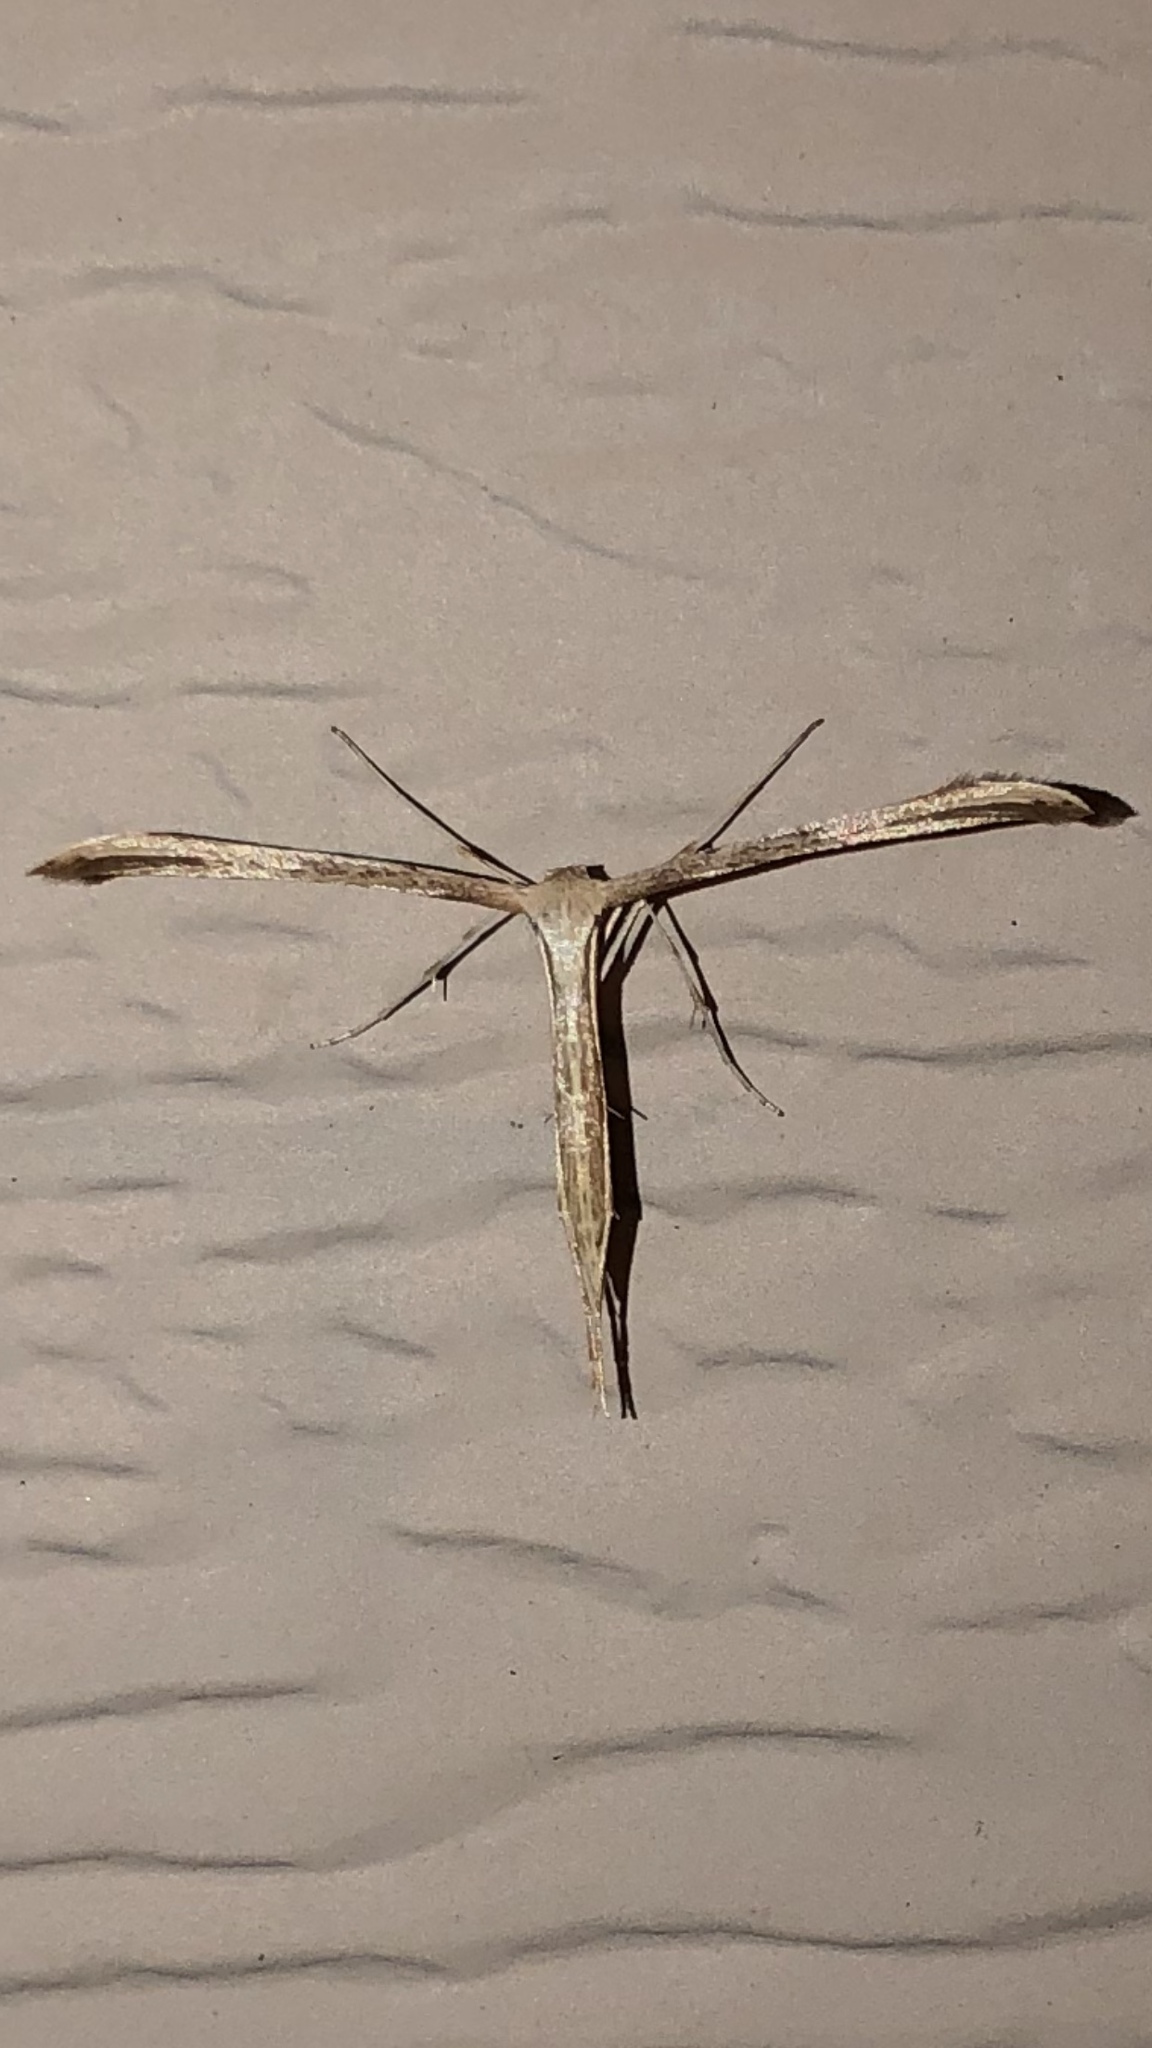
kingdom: Animalia
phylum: Arthropoda
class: Insecta
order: Lepidoptera
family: Pterophoridae
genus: Emmelina
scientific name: Emmelina monodactyla
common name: Common plume
